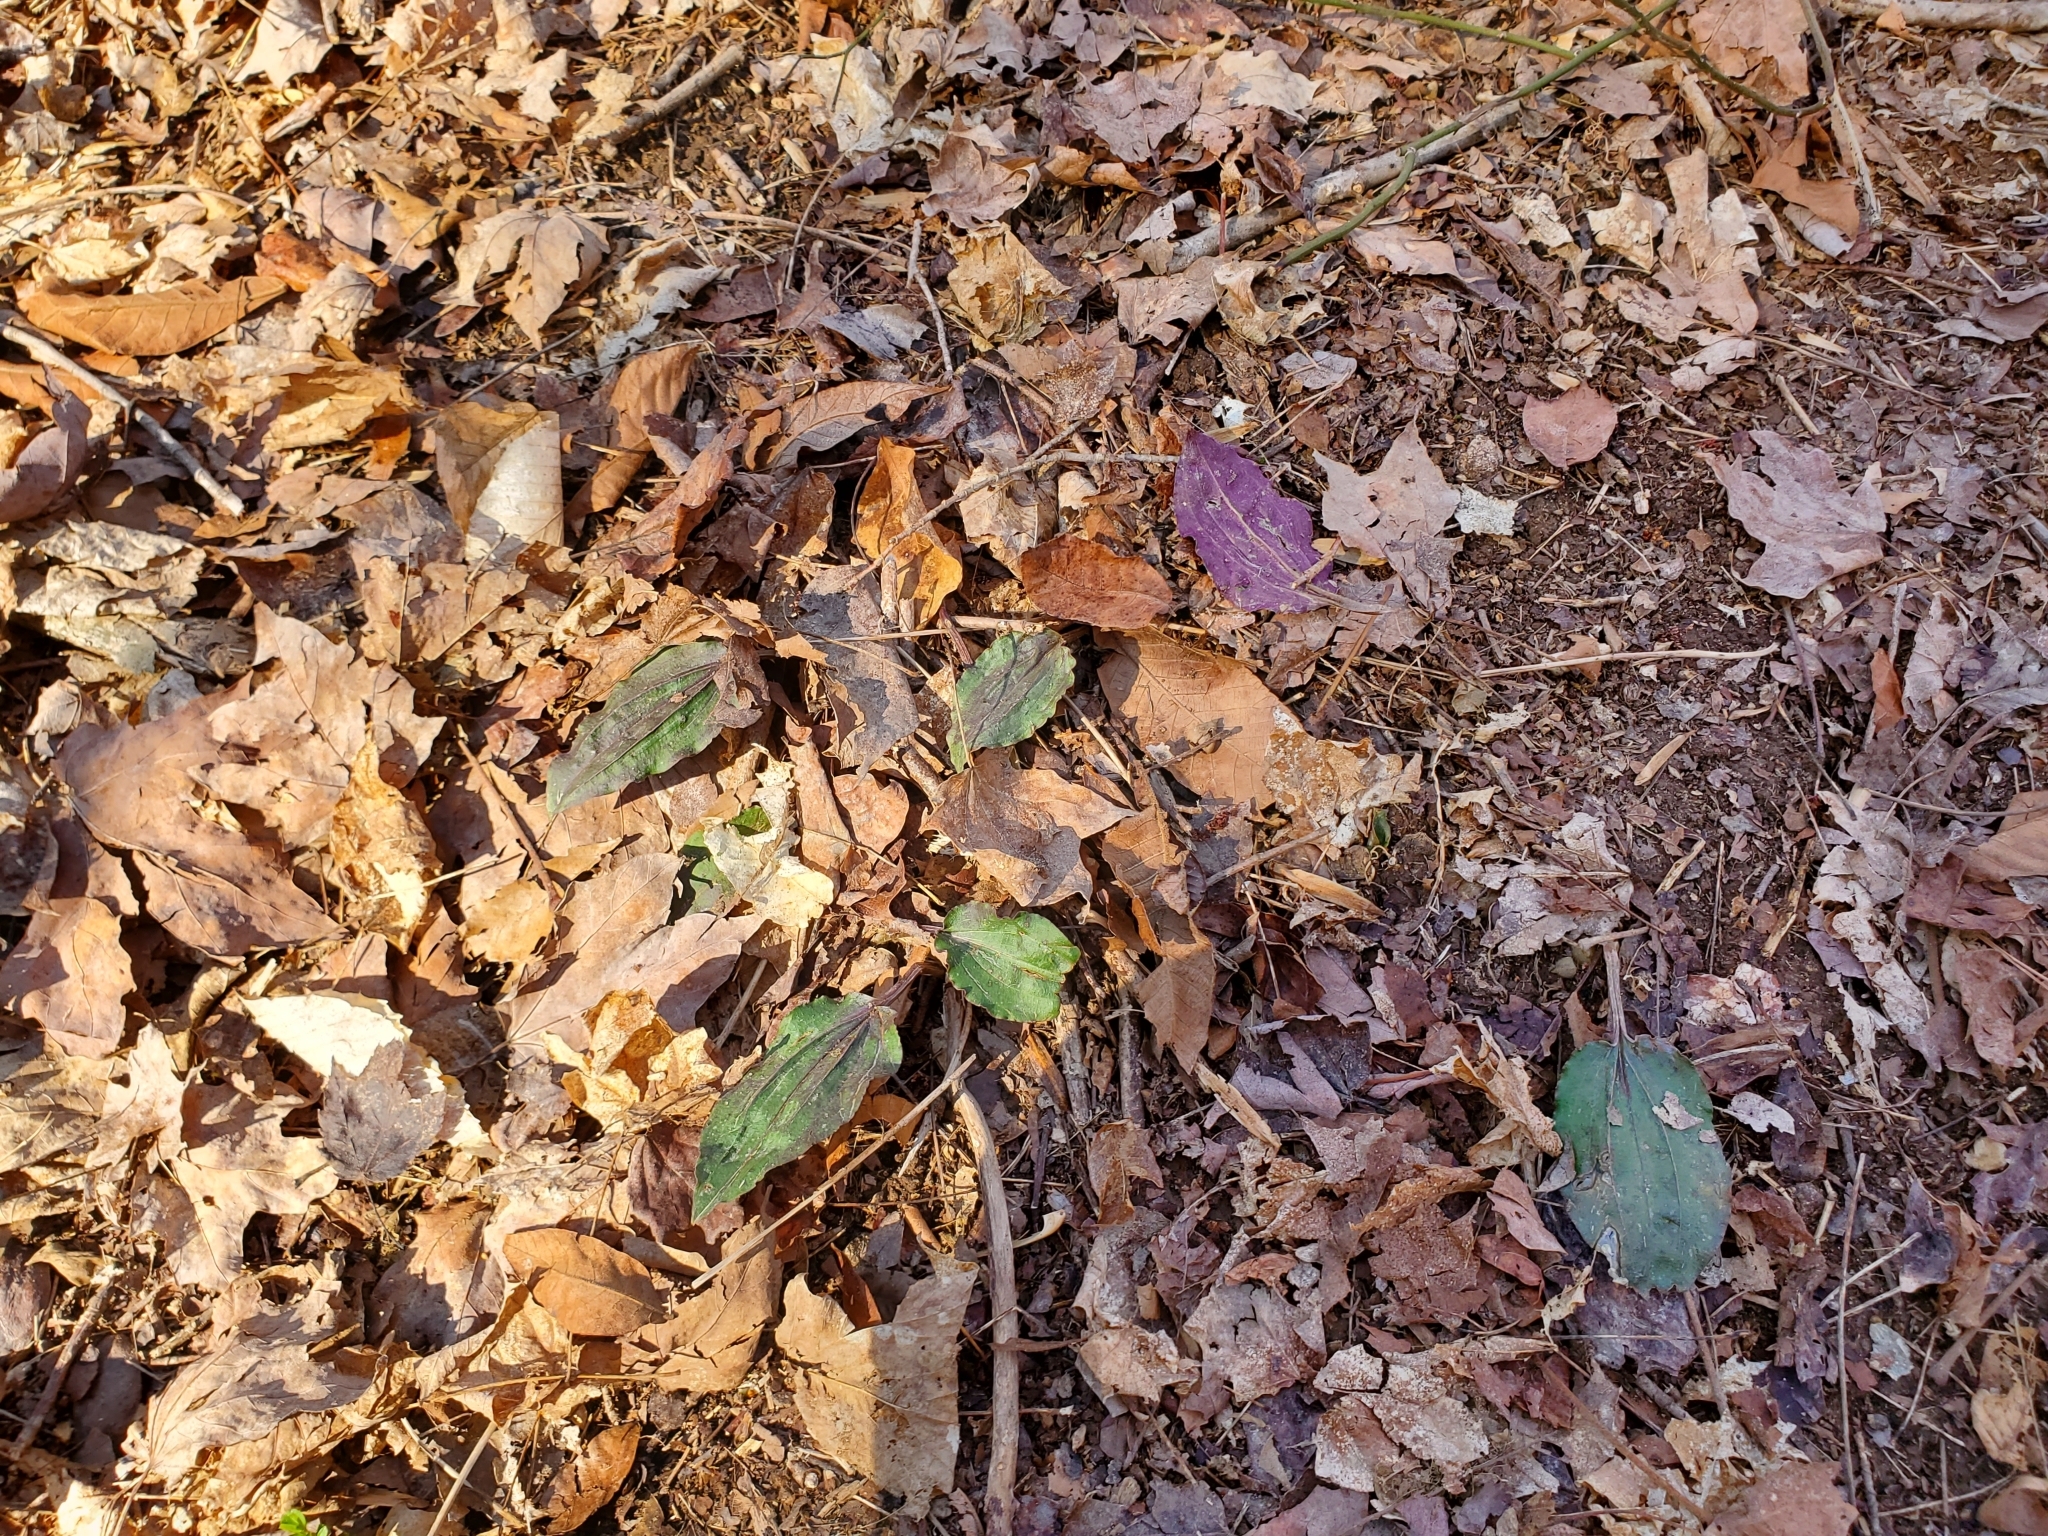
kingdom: Plantae
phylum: Tracheophyta
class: Liliopsida
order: Asparagales
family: Orchidaceae
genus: Tipularia
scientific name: Tipularia discolor
